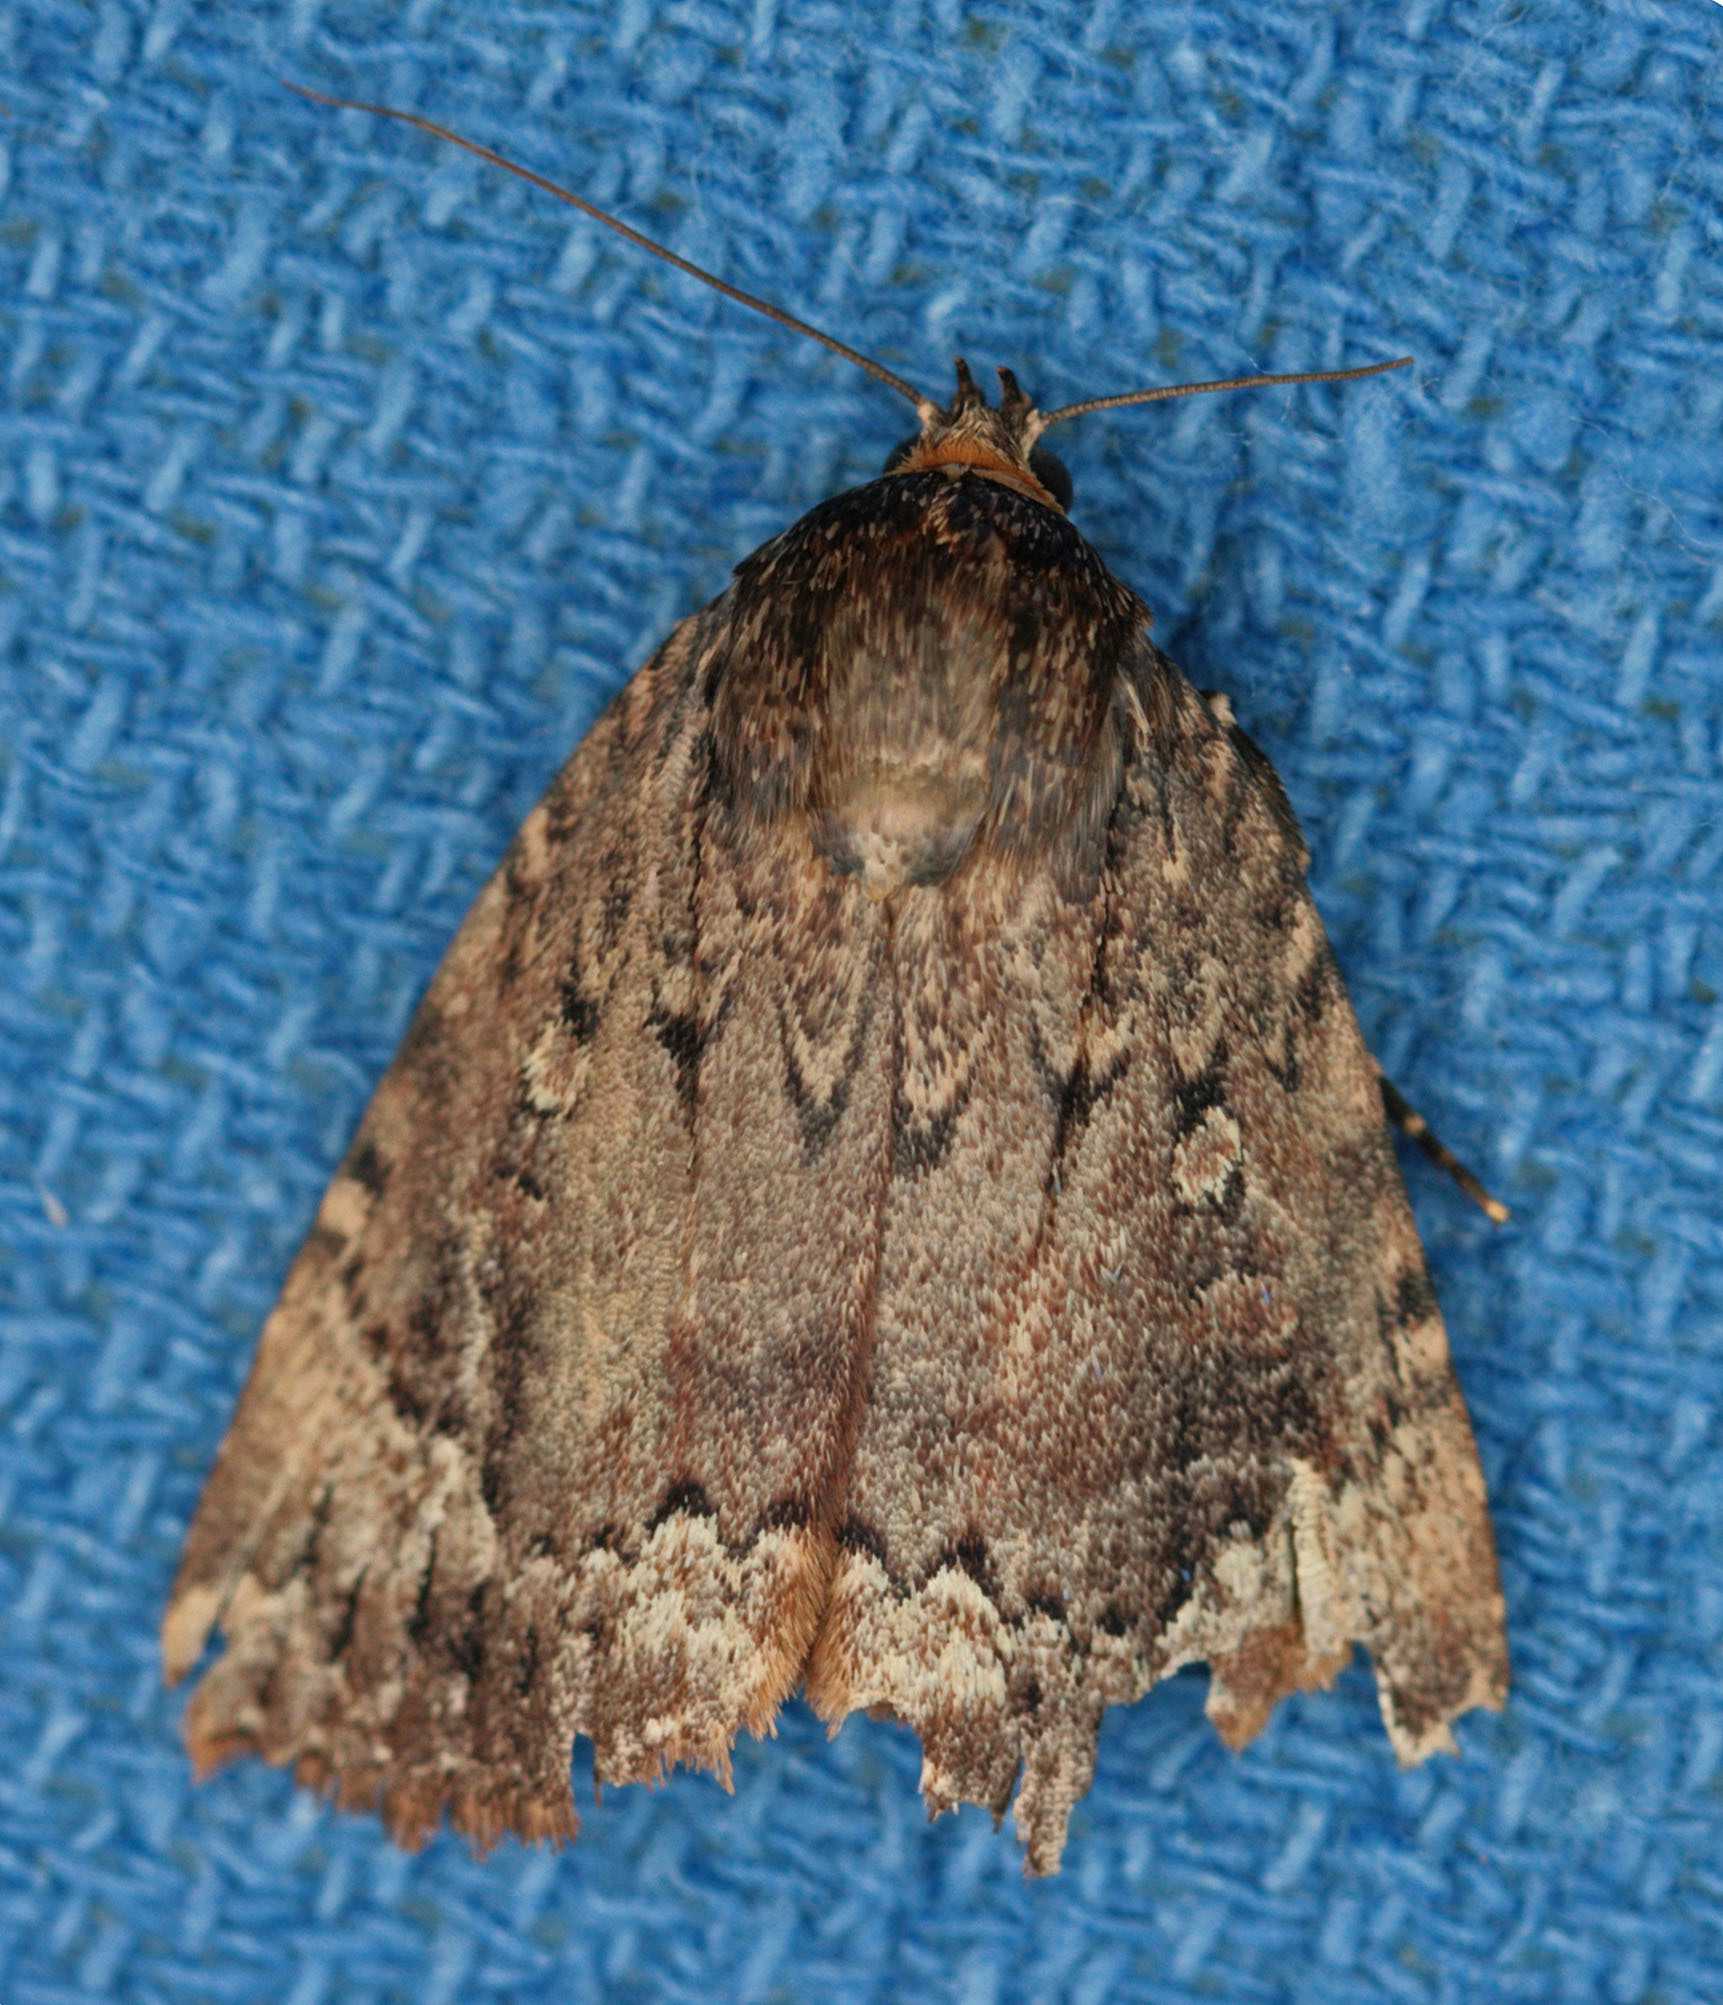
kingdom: Animalia
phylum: Arthropoda
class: Insecta
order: Lepidoptera
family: Noctuidae
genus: Amphipyra
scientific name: Amphipyra pyramidoides
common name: American copper underwing
